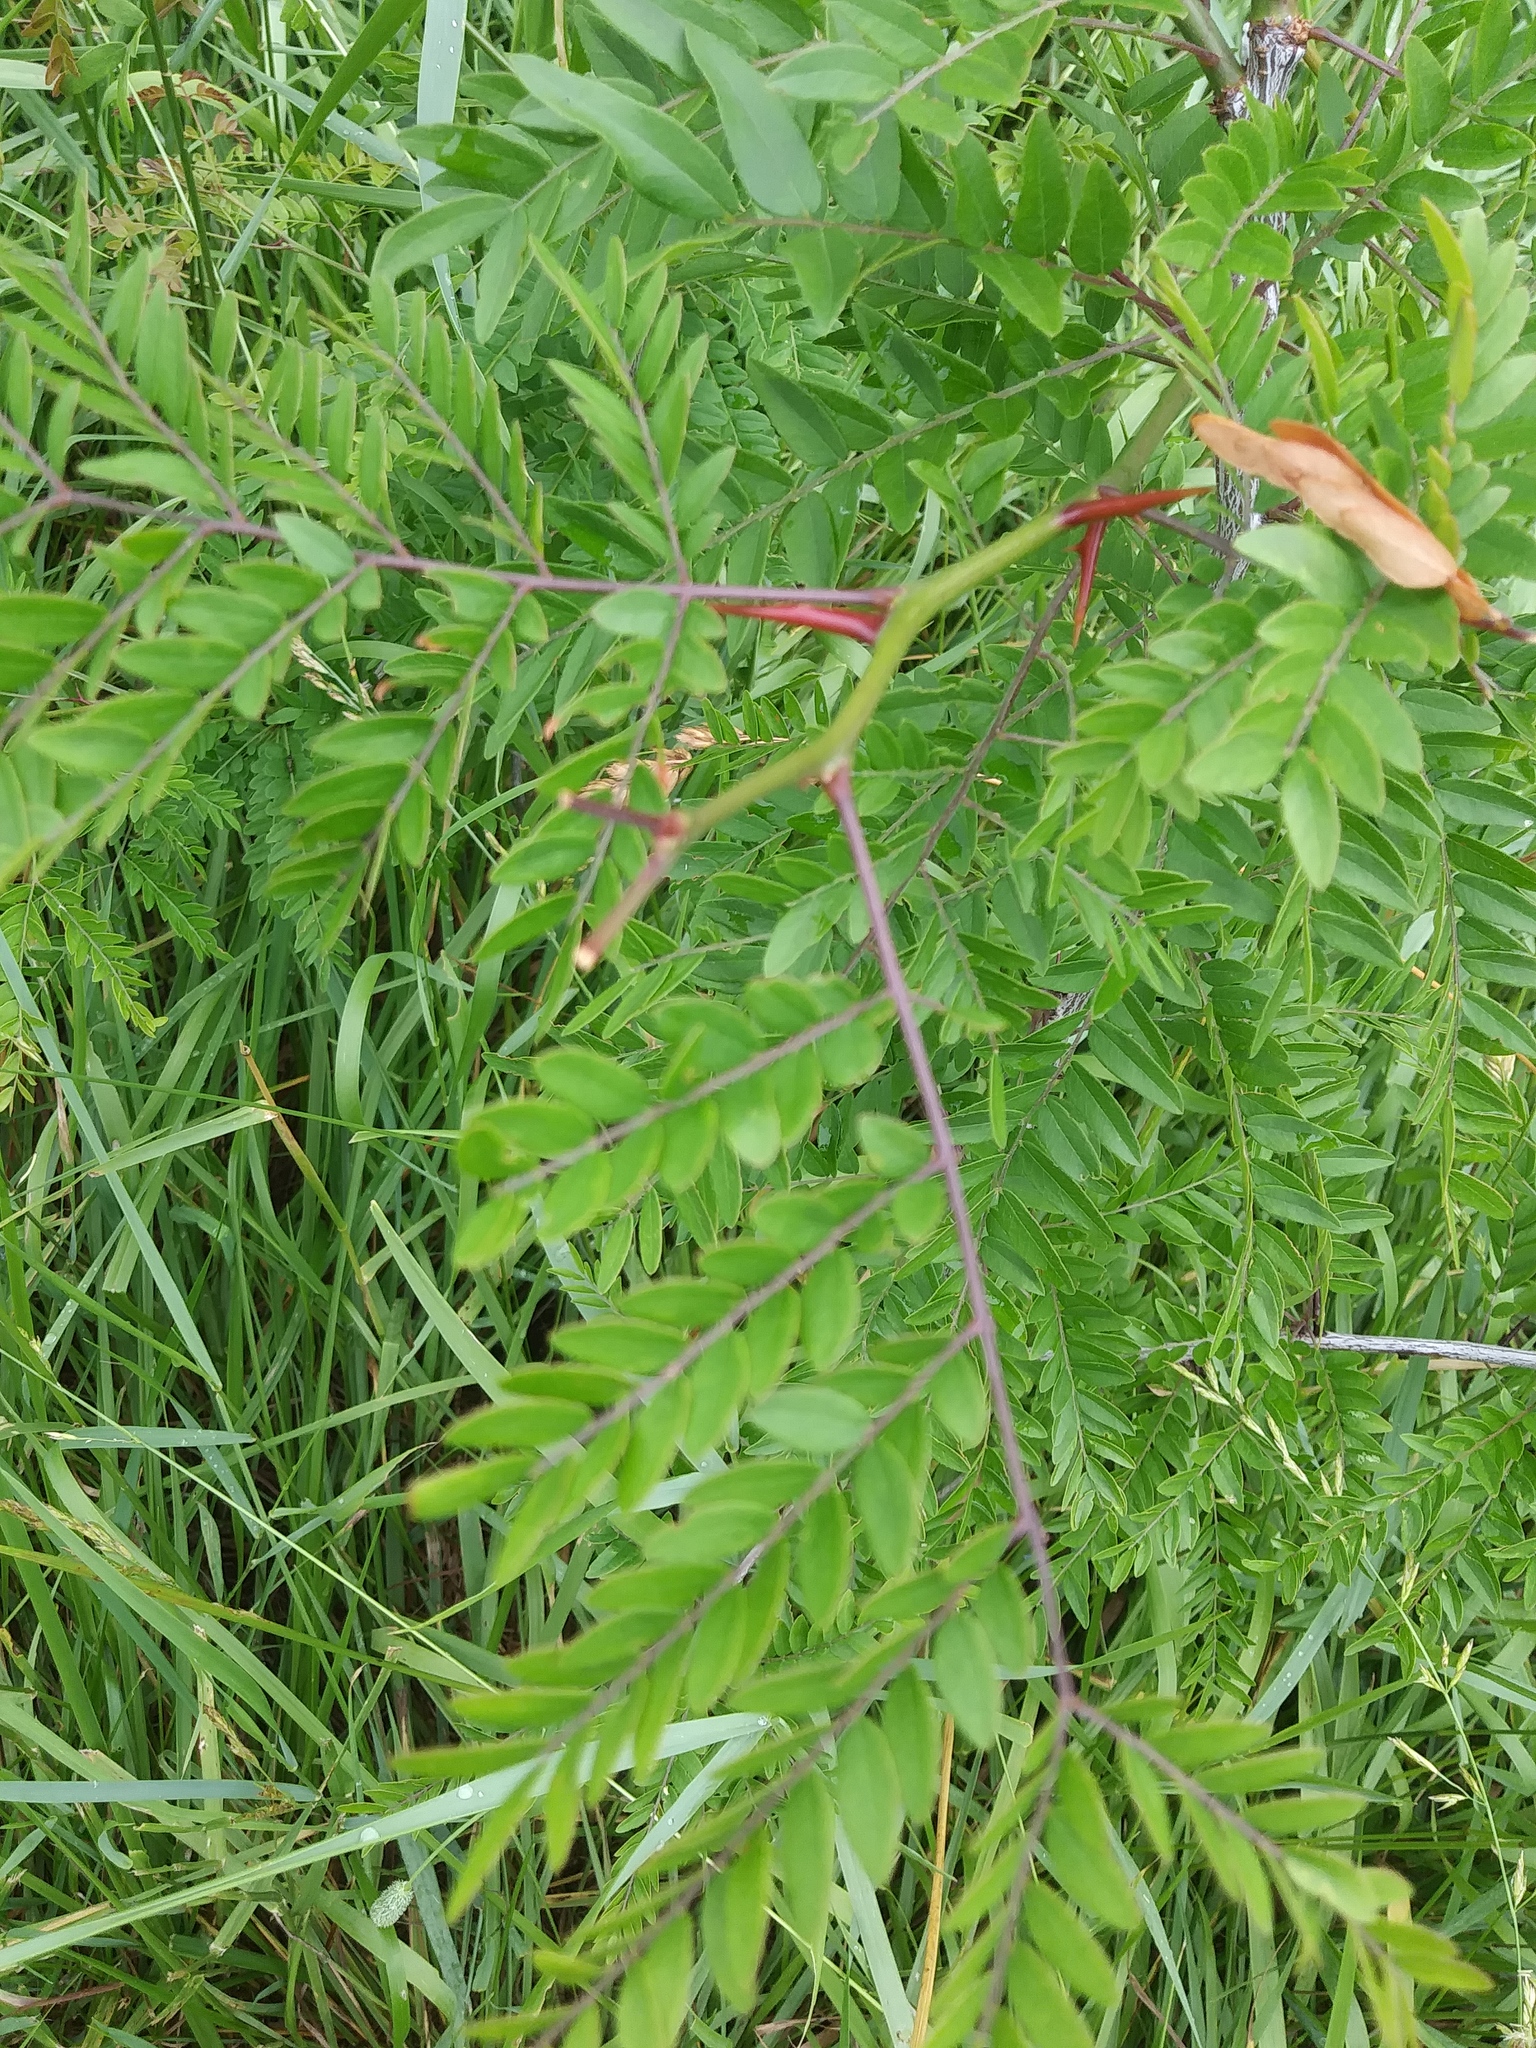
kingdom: Plantae
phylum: Tracheophyta
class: Magnoliopsida
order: Fabales
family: Fabaceae
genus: Gleditsia
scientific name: Gleditsia triacanthos
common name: Common honeylocust
